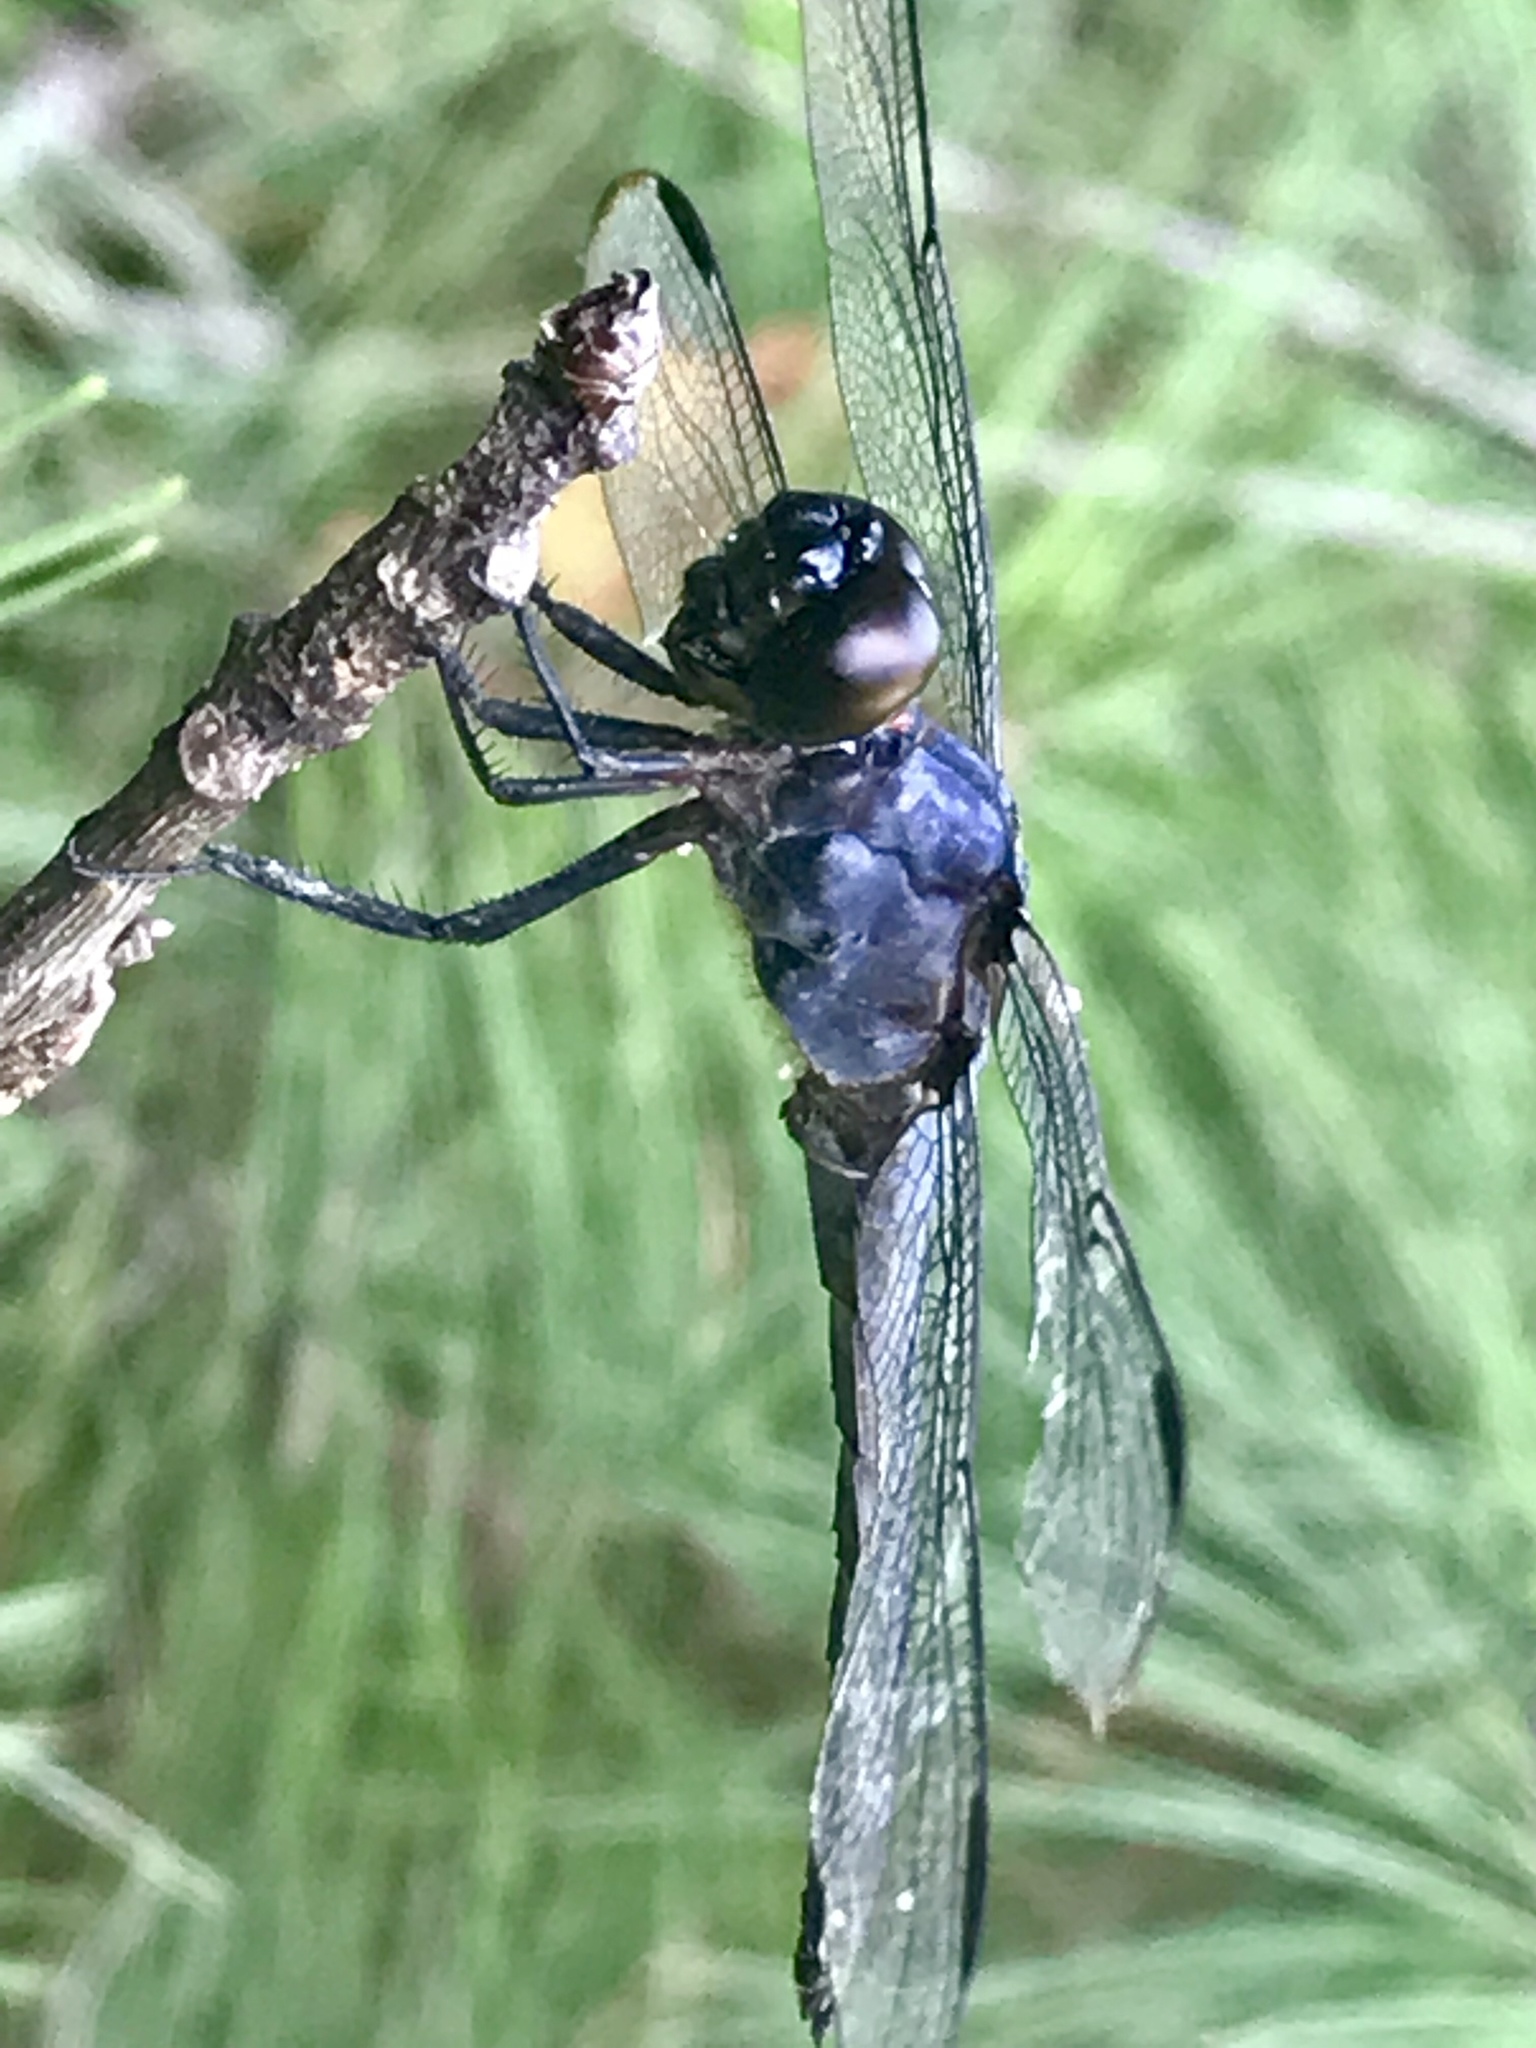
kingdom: Animalia
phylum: Arthropoda
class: Insecta
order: Odonata
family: Libellulidae
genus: Libellula
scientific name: Libellula incesta
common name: Slaty skimmer
